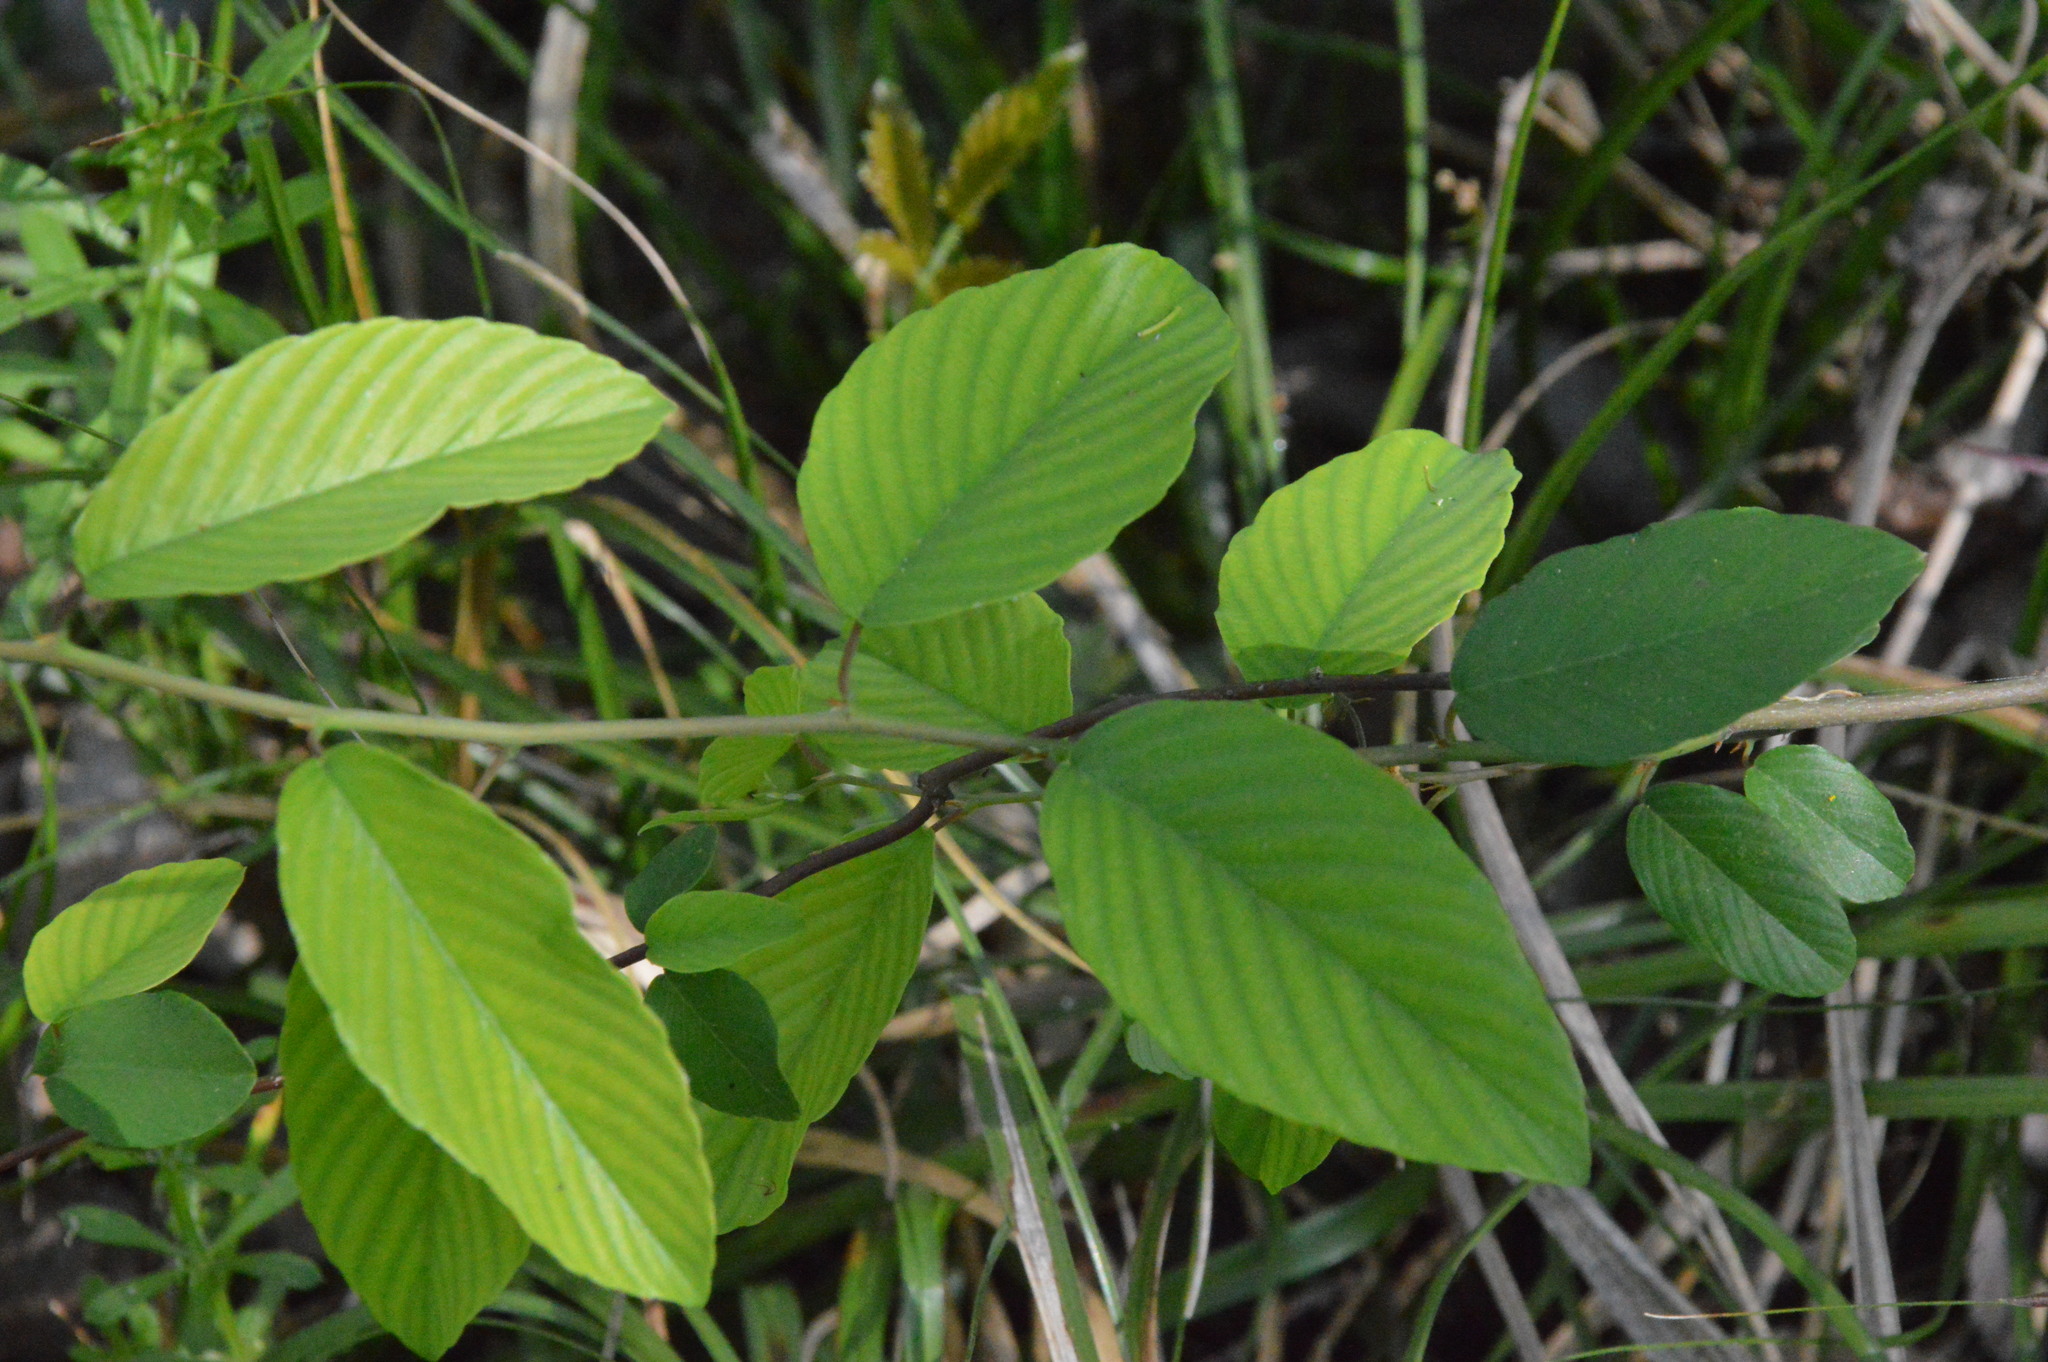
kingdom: Plantae
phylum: Tracheophyta
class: Magnoliopsida
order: Rosales
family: Rhamnaceae
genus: Berchemia
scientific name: Berchemia scandens
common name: Supplejack
